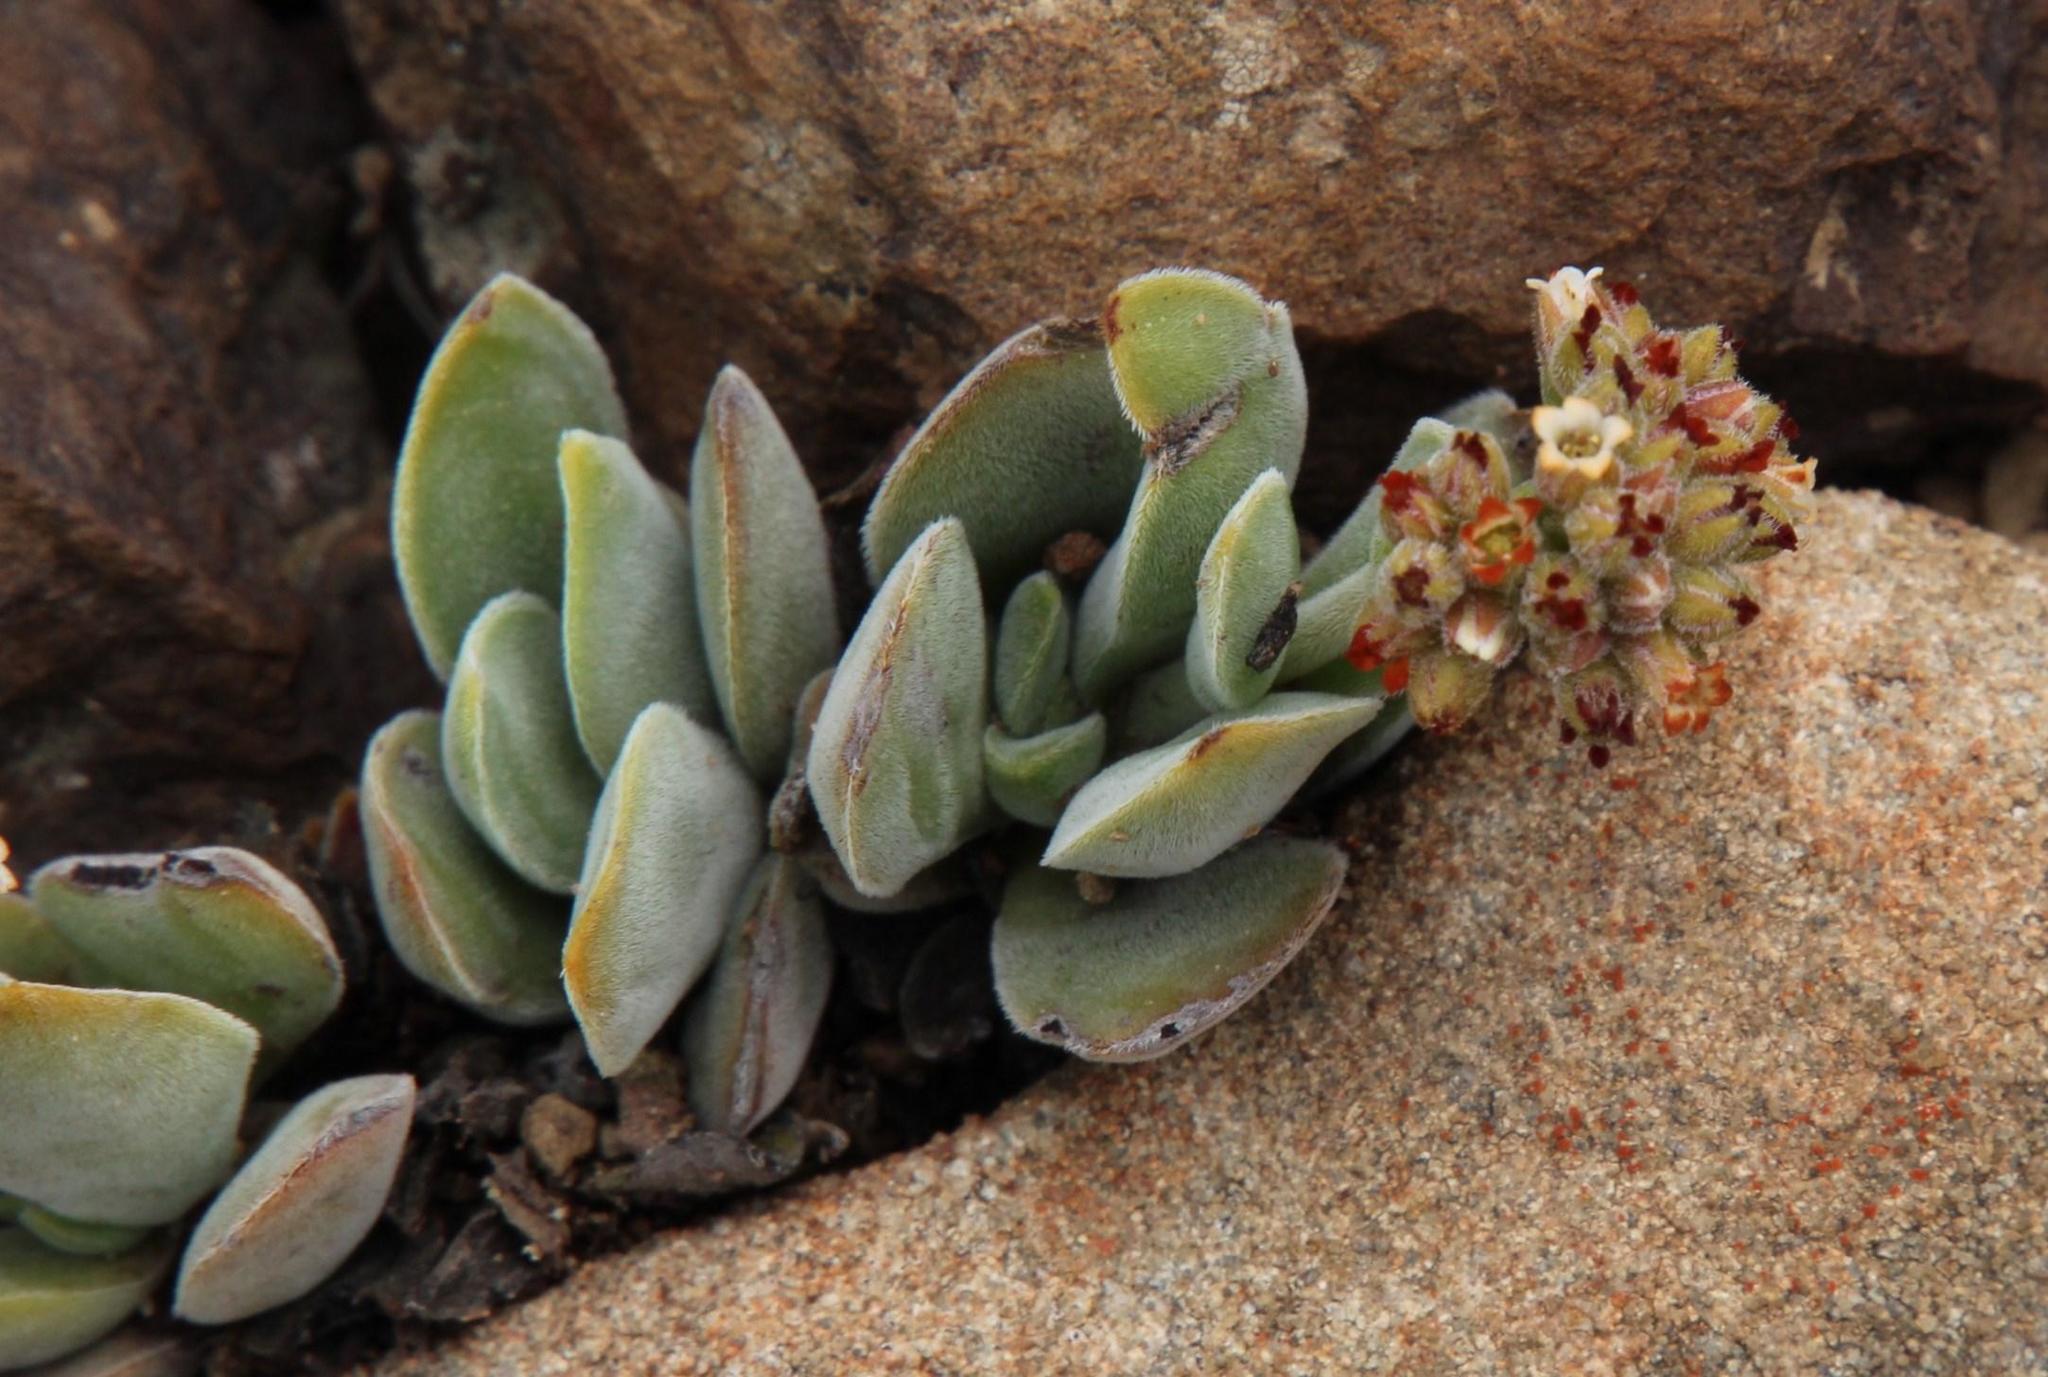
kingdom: Plantae
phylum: Tracheophyta
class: Magnoliopsida
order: Saxifragales
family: Crassulaceae
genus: Crassula
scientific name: Crassula lanuginosa
